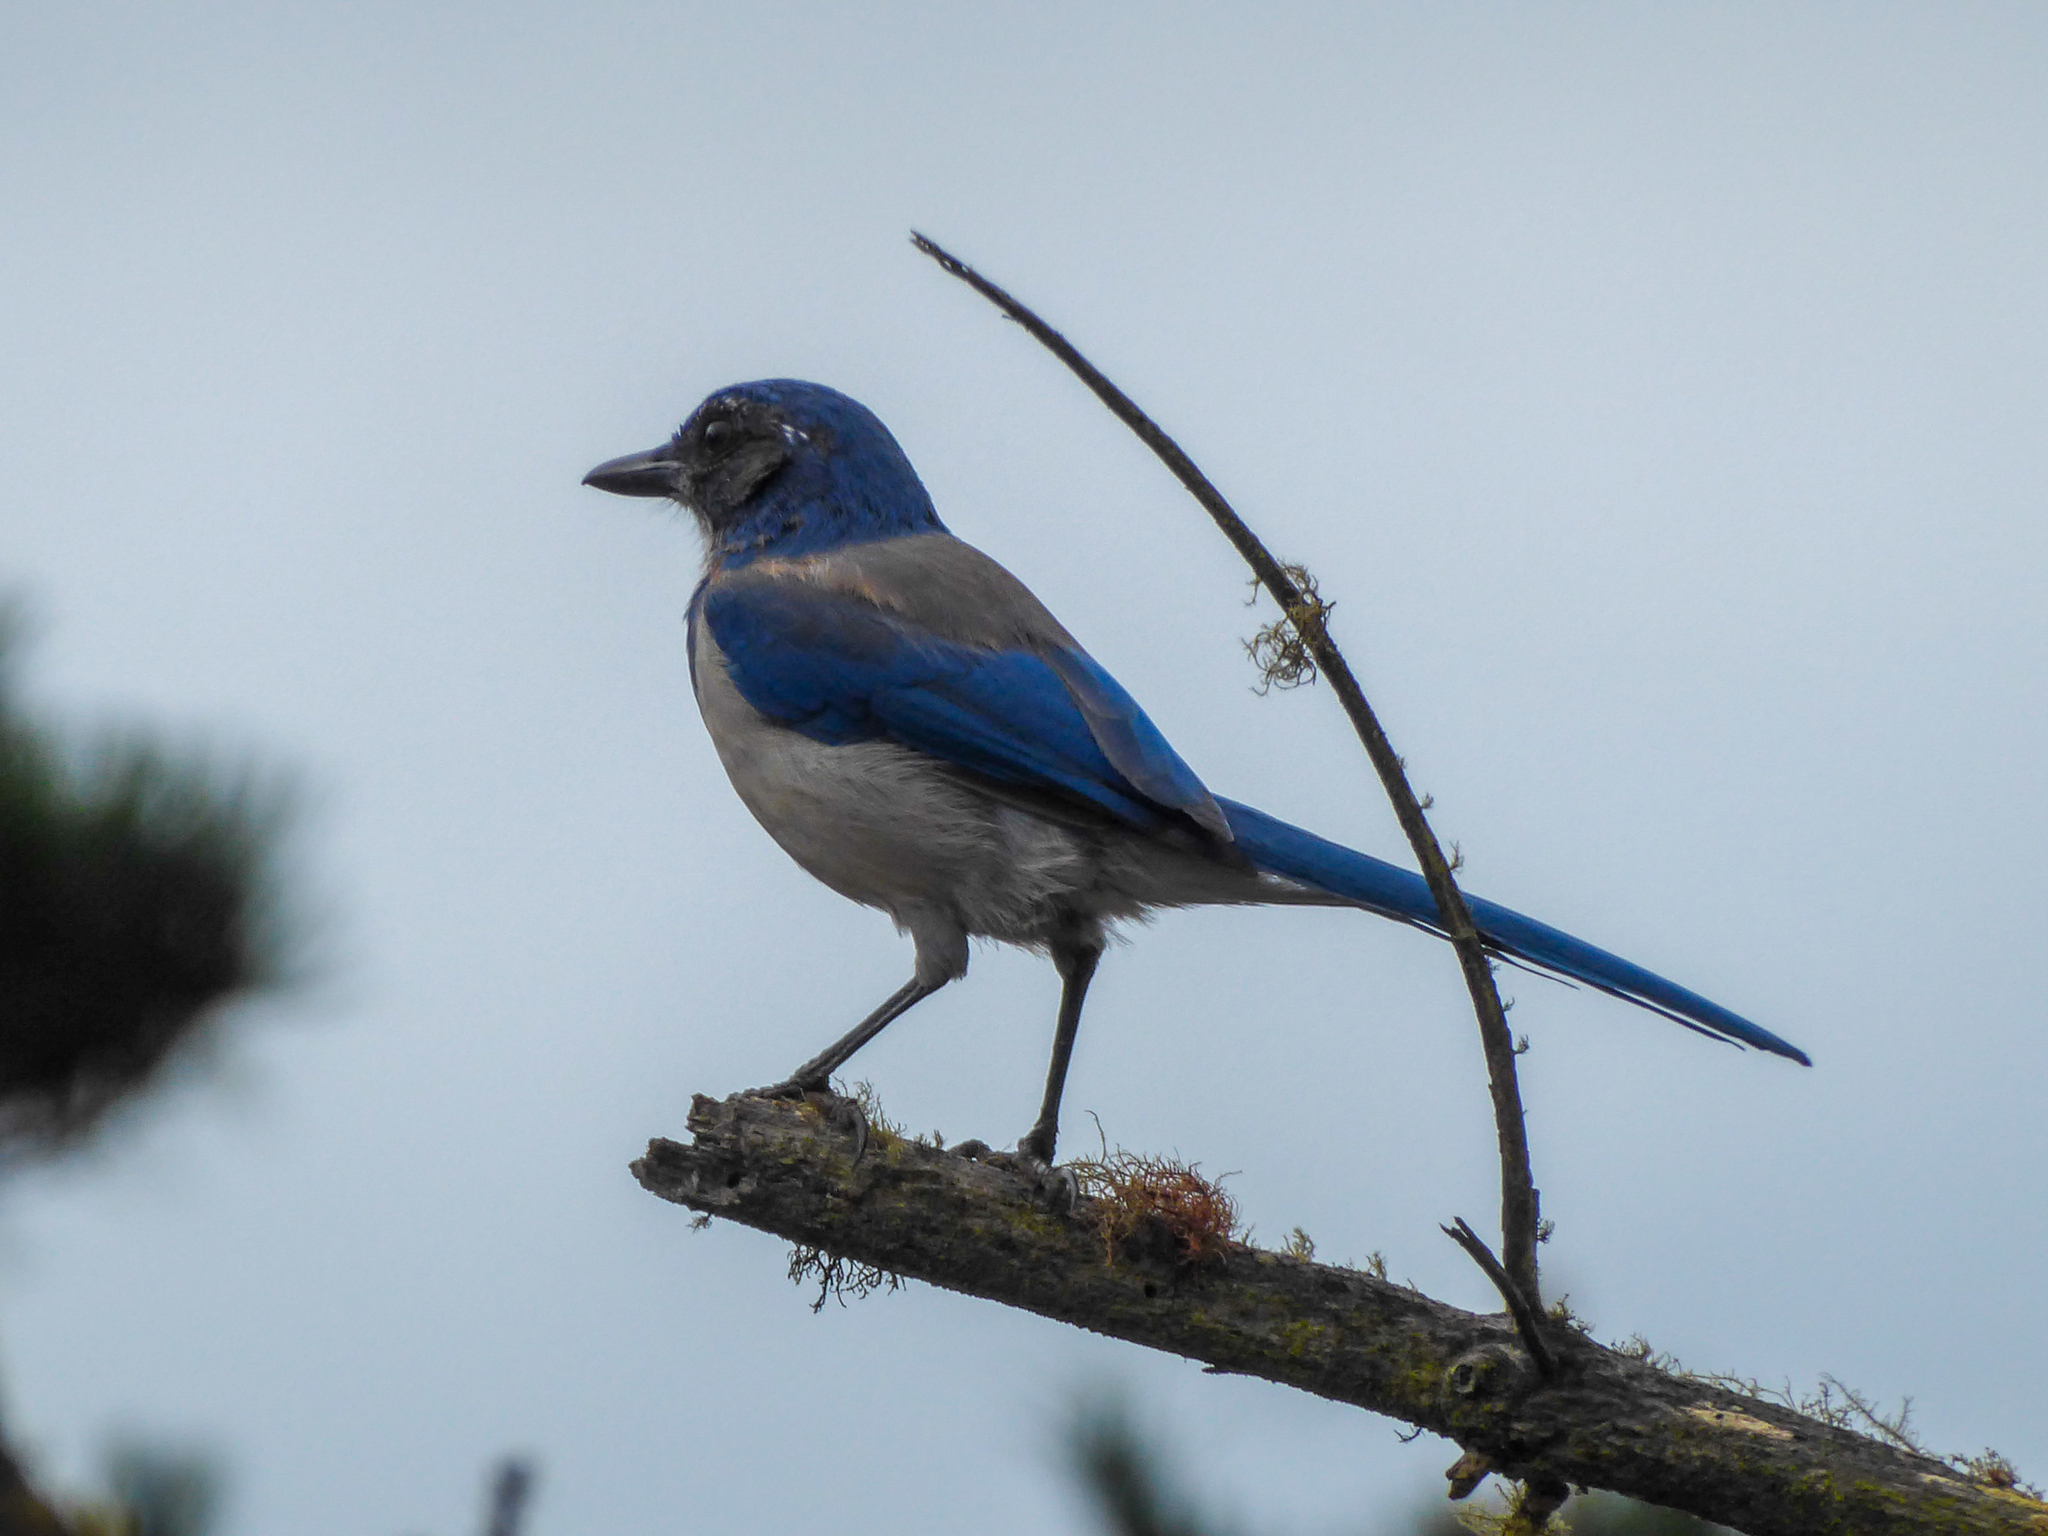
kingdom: Animalia
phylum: Chordata
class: Aves
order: Passeriformes
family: Corvidae
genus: Aphelocoma
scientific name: Aphelocoma californica
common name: California scrub-jay
